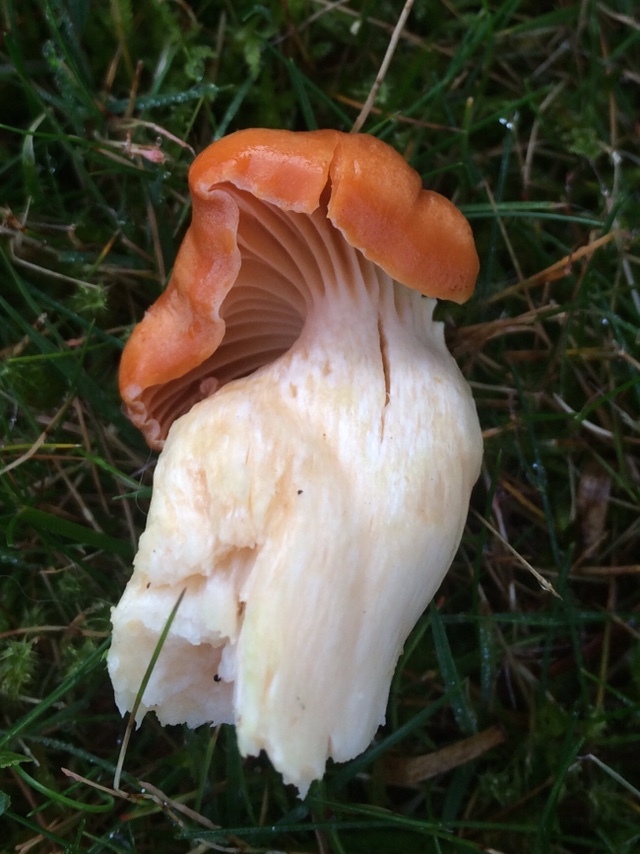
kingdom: Fungi
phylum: Basidiomycota
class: Agaricomycetes
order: Agaricales
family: Hygrophoraceae
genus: Cuphophyllus
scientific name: Cuphophyllus pratensis
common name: Meadow waxcap
